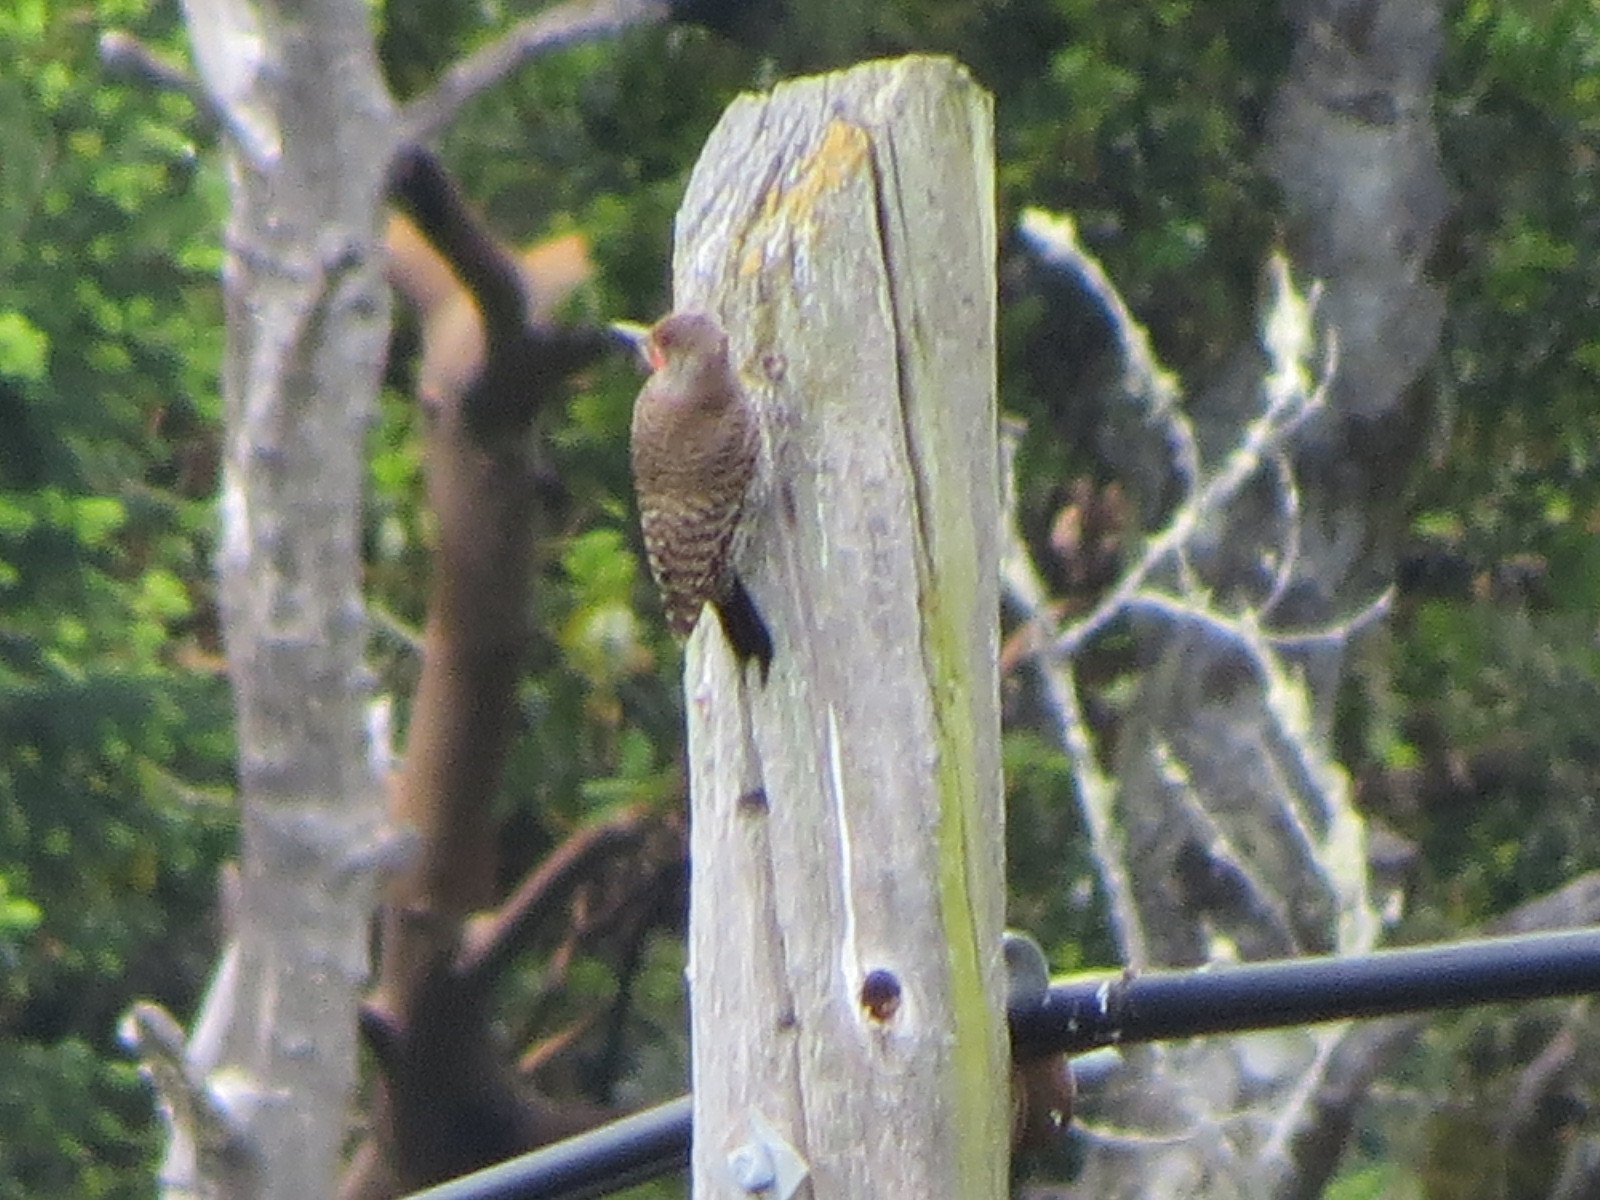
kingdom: Animalia
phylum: Chordata
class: Aves
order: Piciformes
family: Picidae
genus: Colaptes
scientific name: Colaptes auratus
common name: Northern flicker
